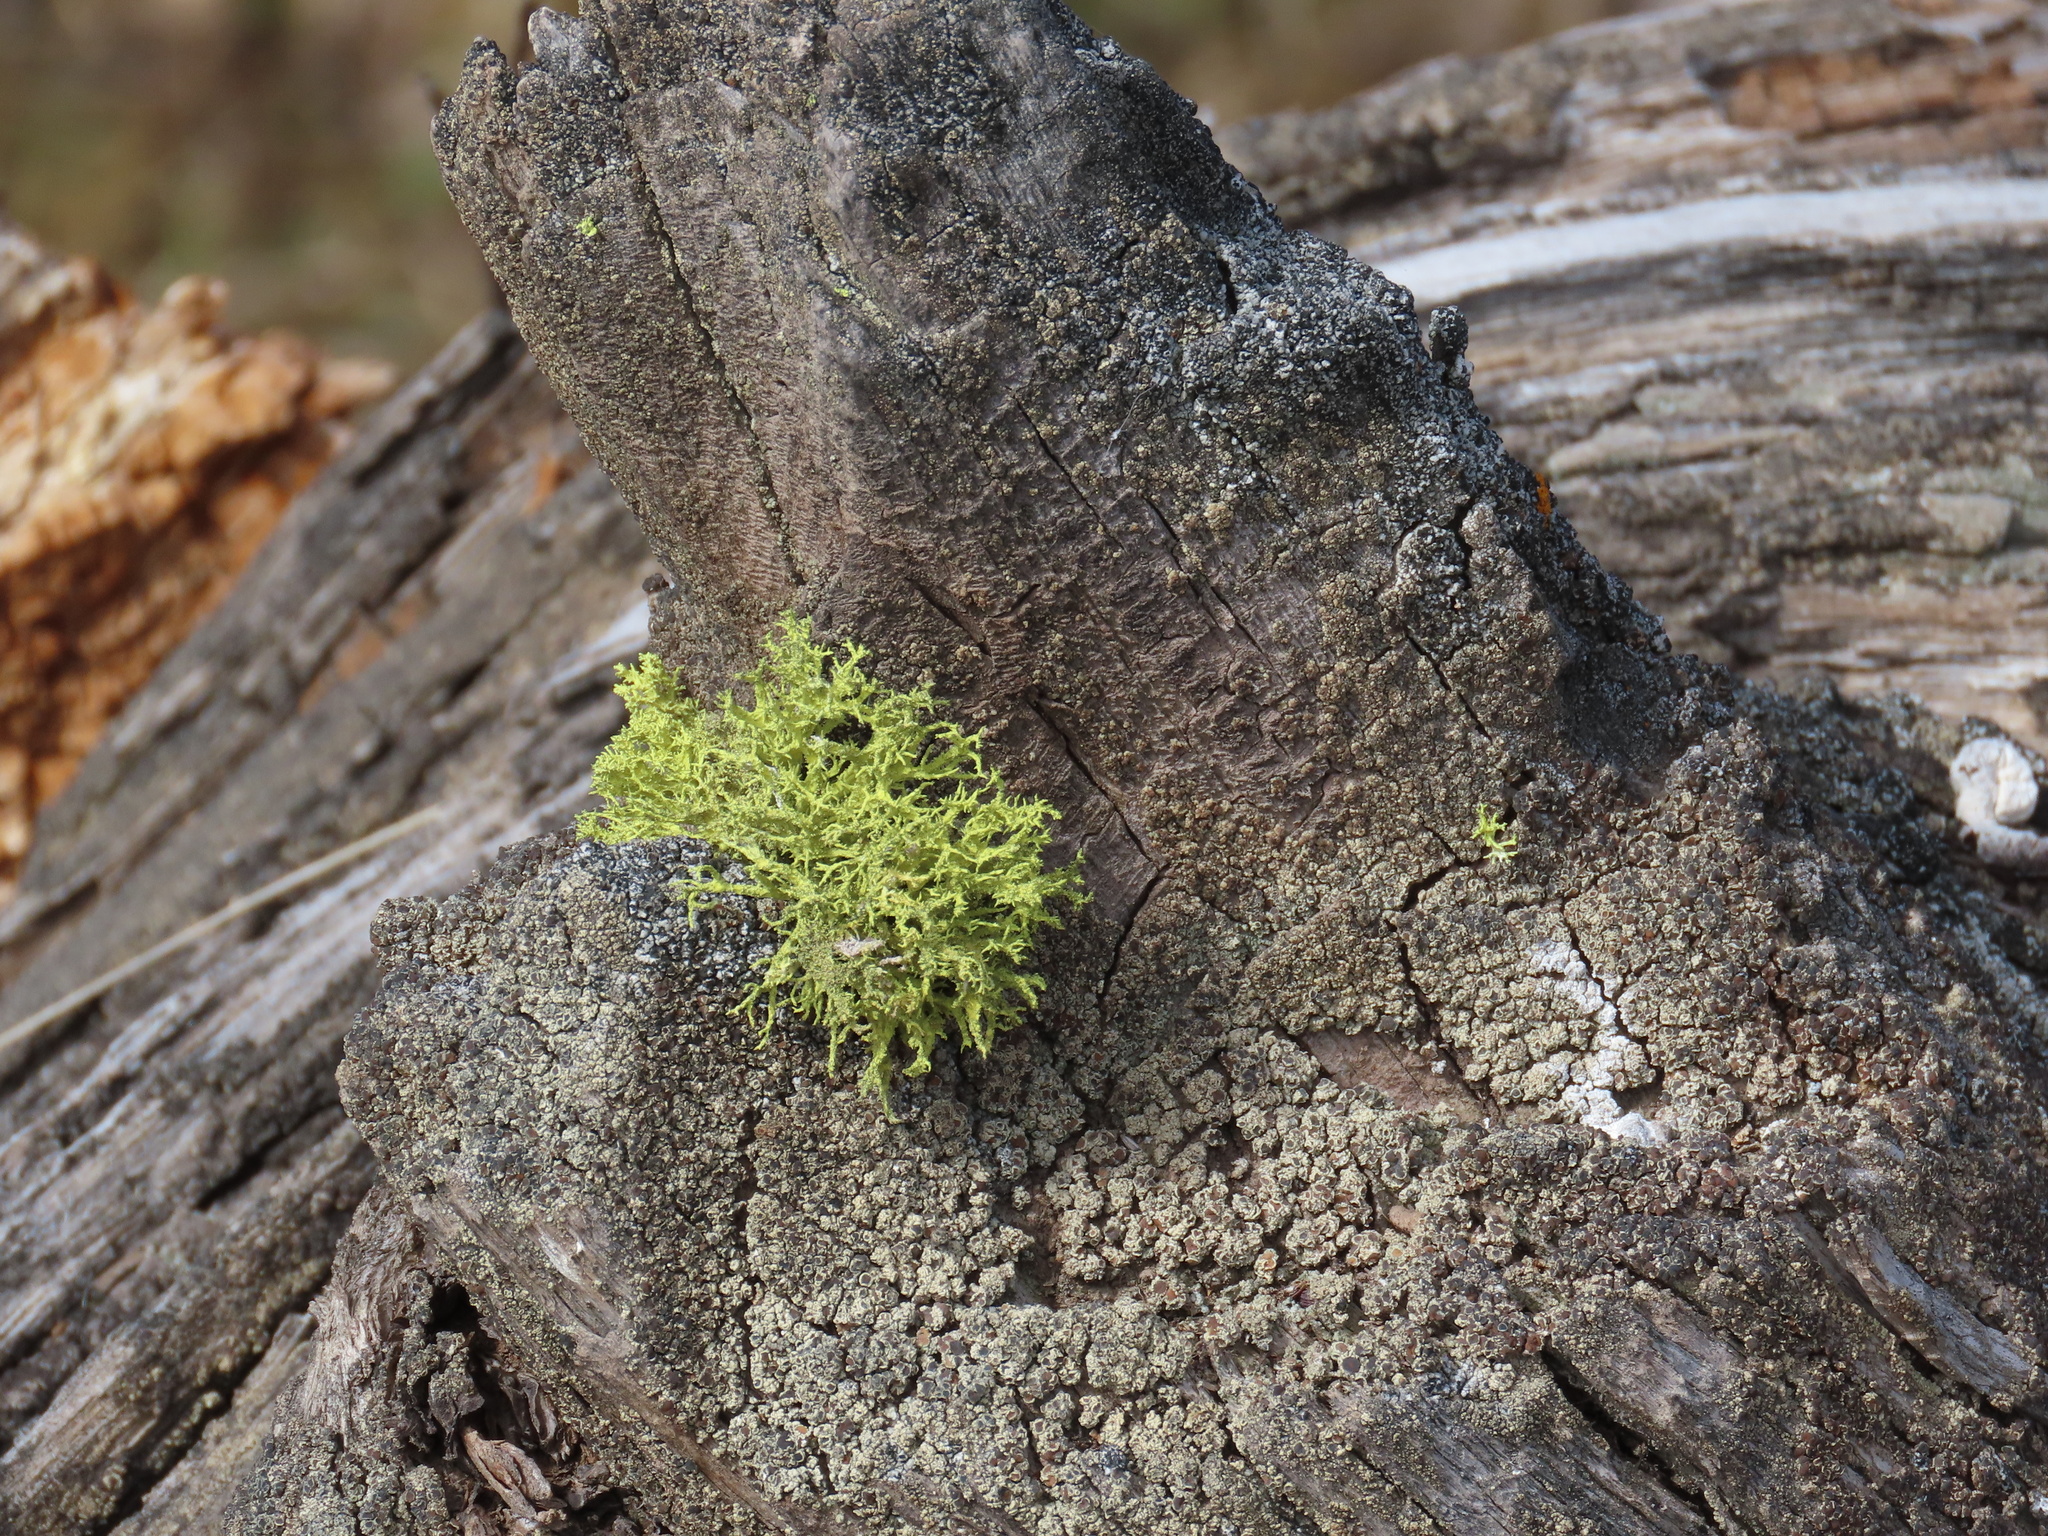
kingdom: Fungi
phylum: Ascomycota
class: Lecanoromycetes
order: Lecanorales
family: Parmeliaceae
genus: Letharia
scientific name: Letharia vulpina
